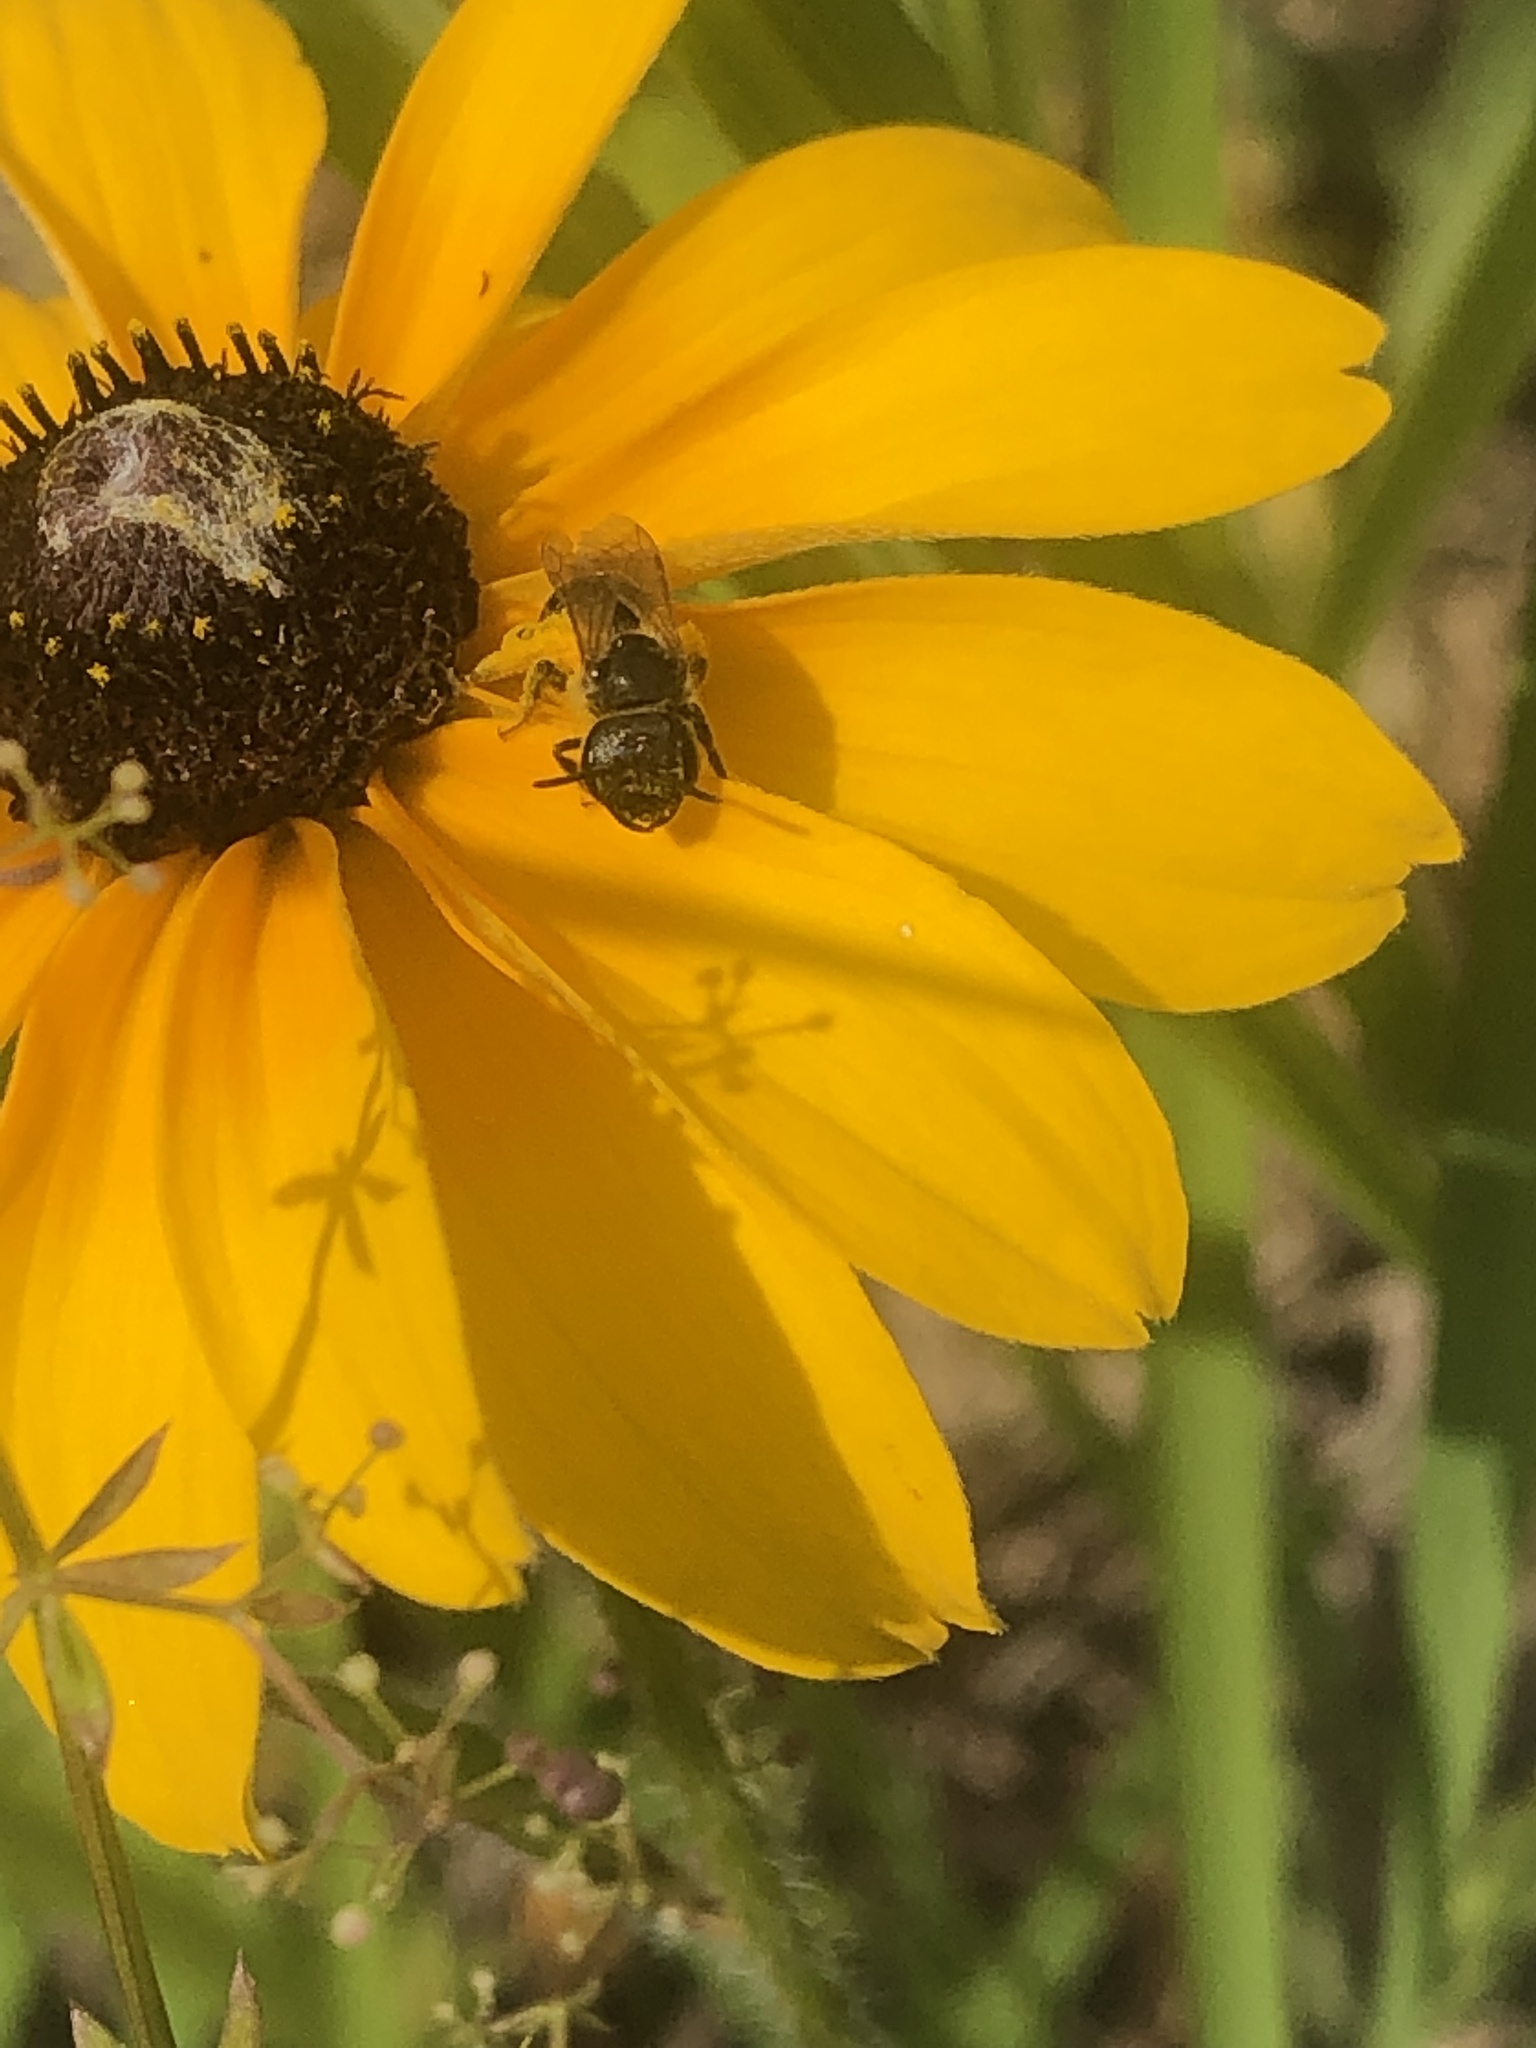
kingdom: Animalia
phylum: Arthropoda
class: Insecta
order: Hymenoptera
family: Halictidae
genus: Halictus
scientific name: Halictus ligatus
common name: Ligated furrow bee
